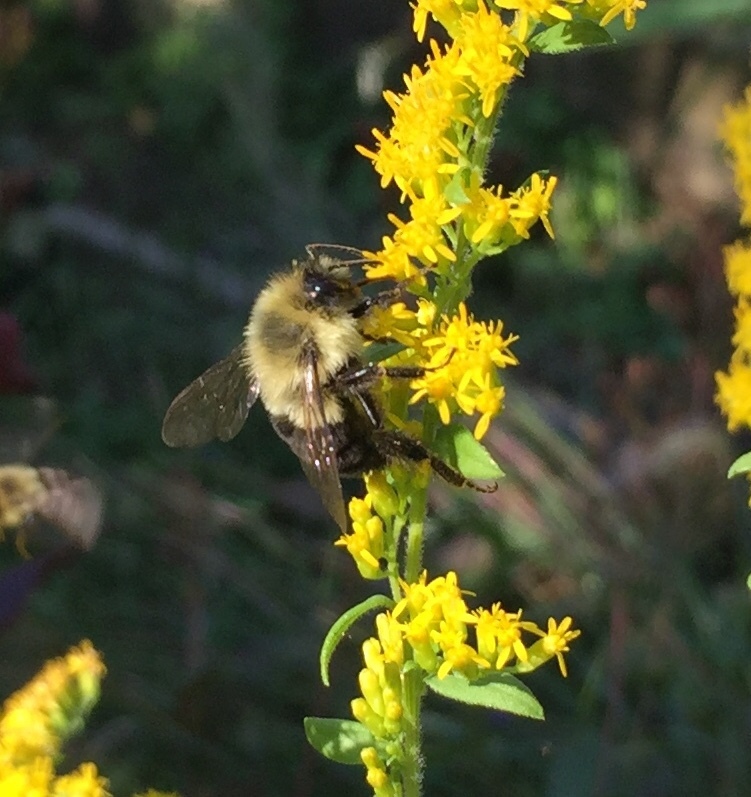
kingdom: Animalia
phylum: Arthropoda
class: Insecta
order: Hymenoptera
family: Apidae
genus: Bombus
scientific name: Bombus impatiens
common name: Common eastern bumble bee
